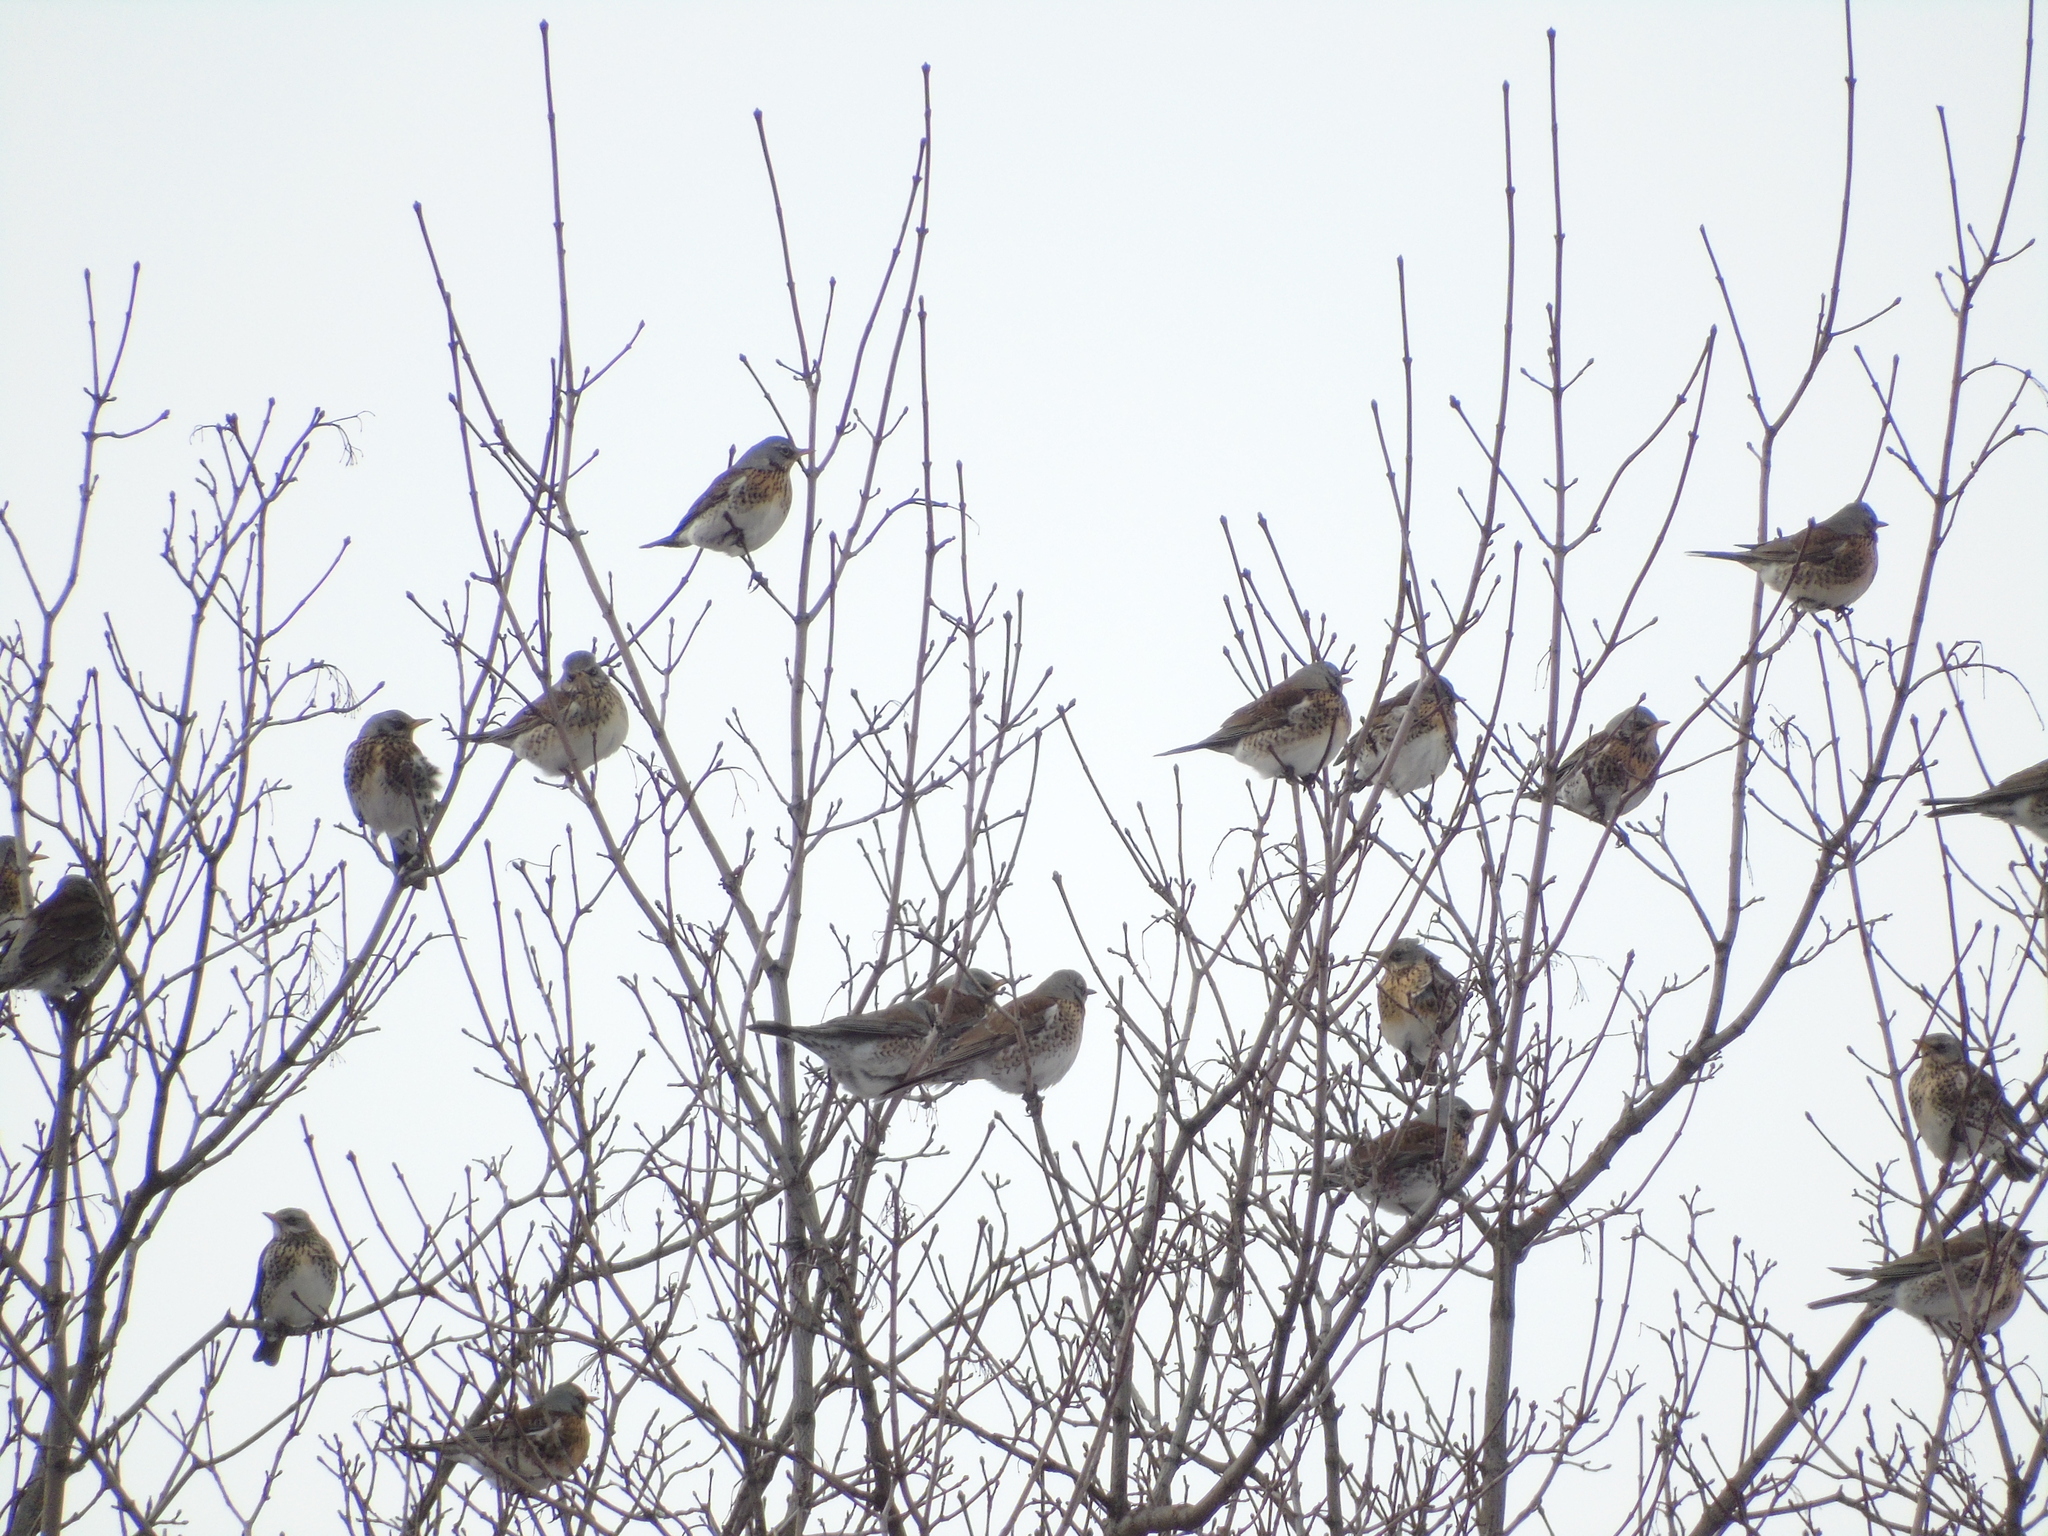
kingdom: Animalia
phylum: Chordata
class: Aves
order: Passeriformes
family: Turdidae
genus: Turdus
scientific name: Turdus pilaris
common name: Fieldfare
